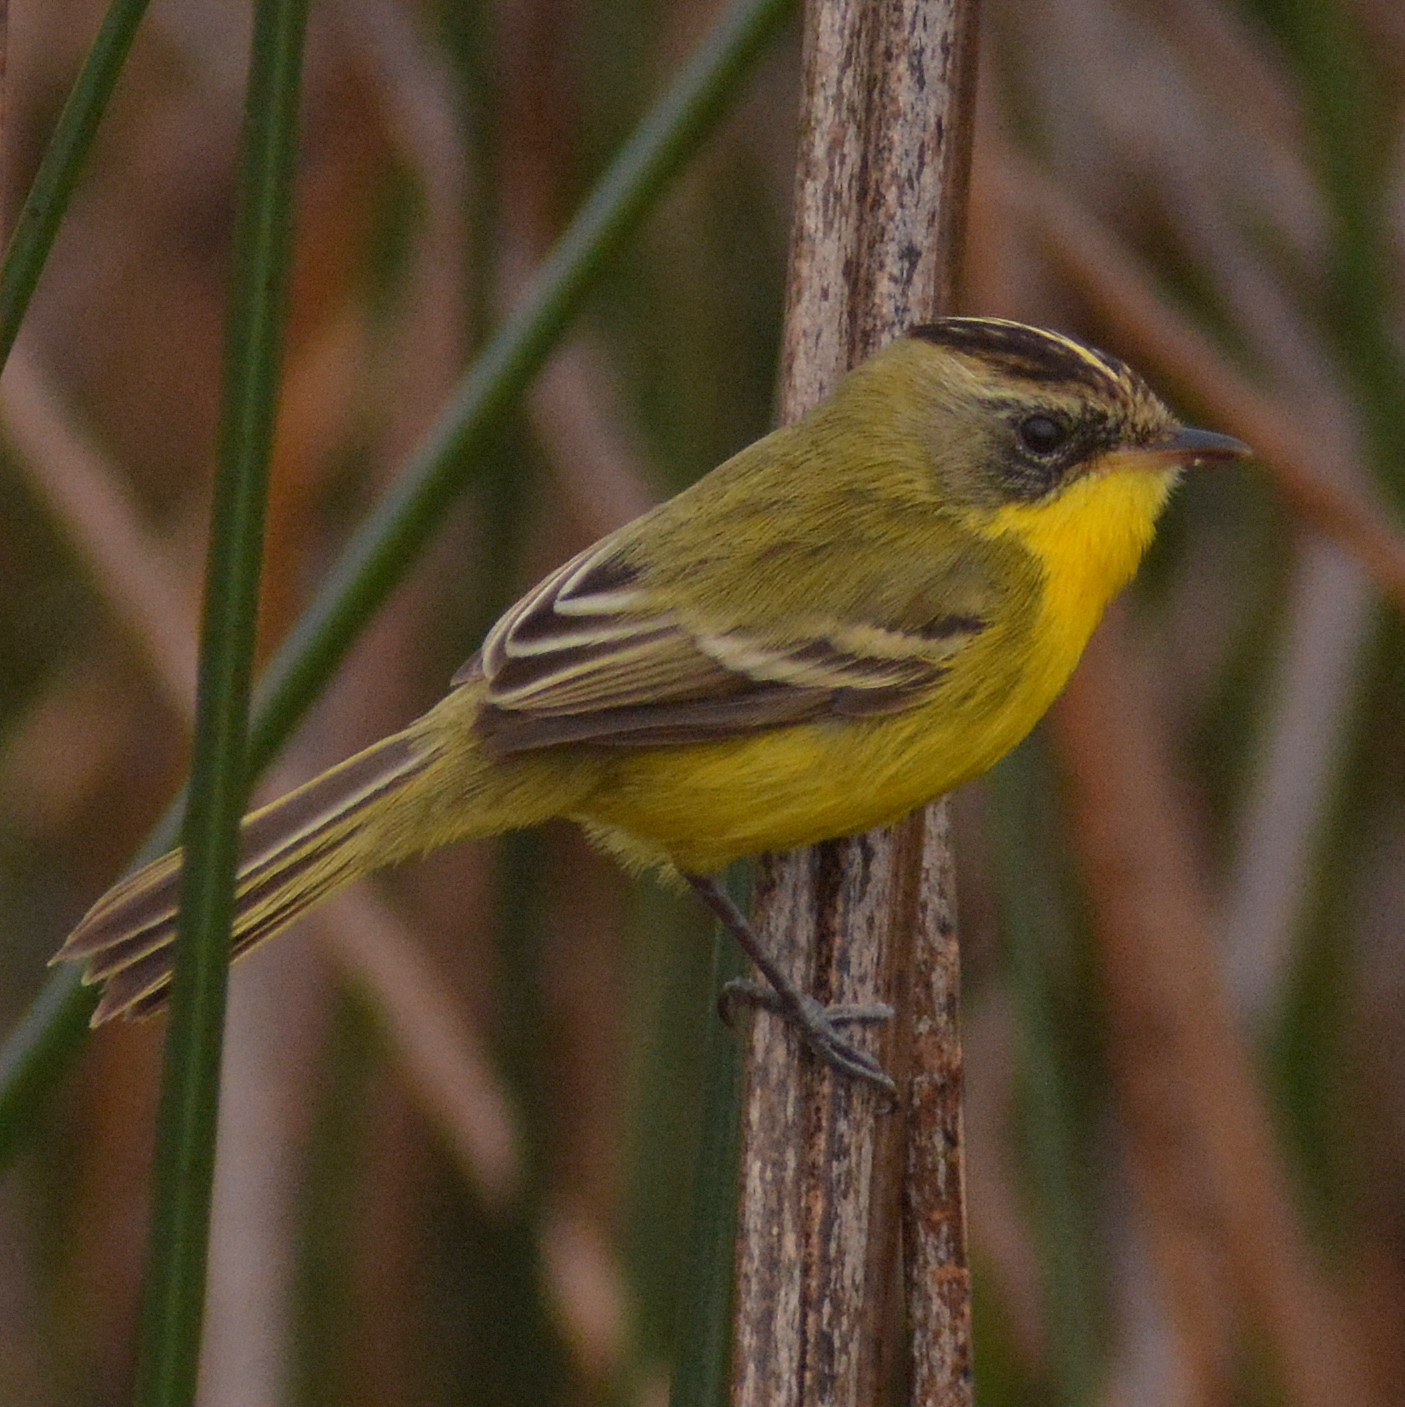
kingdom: Animalia
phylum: Chordata
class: Aves
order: Passeriformes
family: Tyrannidae
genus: Pseudocolopteryx
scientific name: Pseudocolopteryx sclateri
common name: Crested doradito
